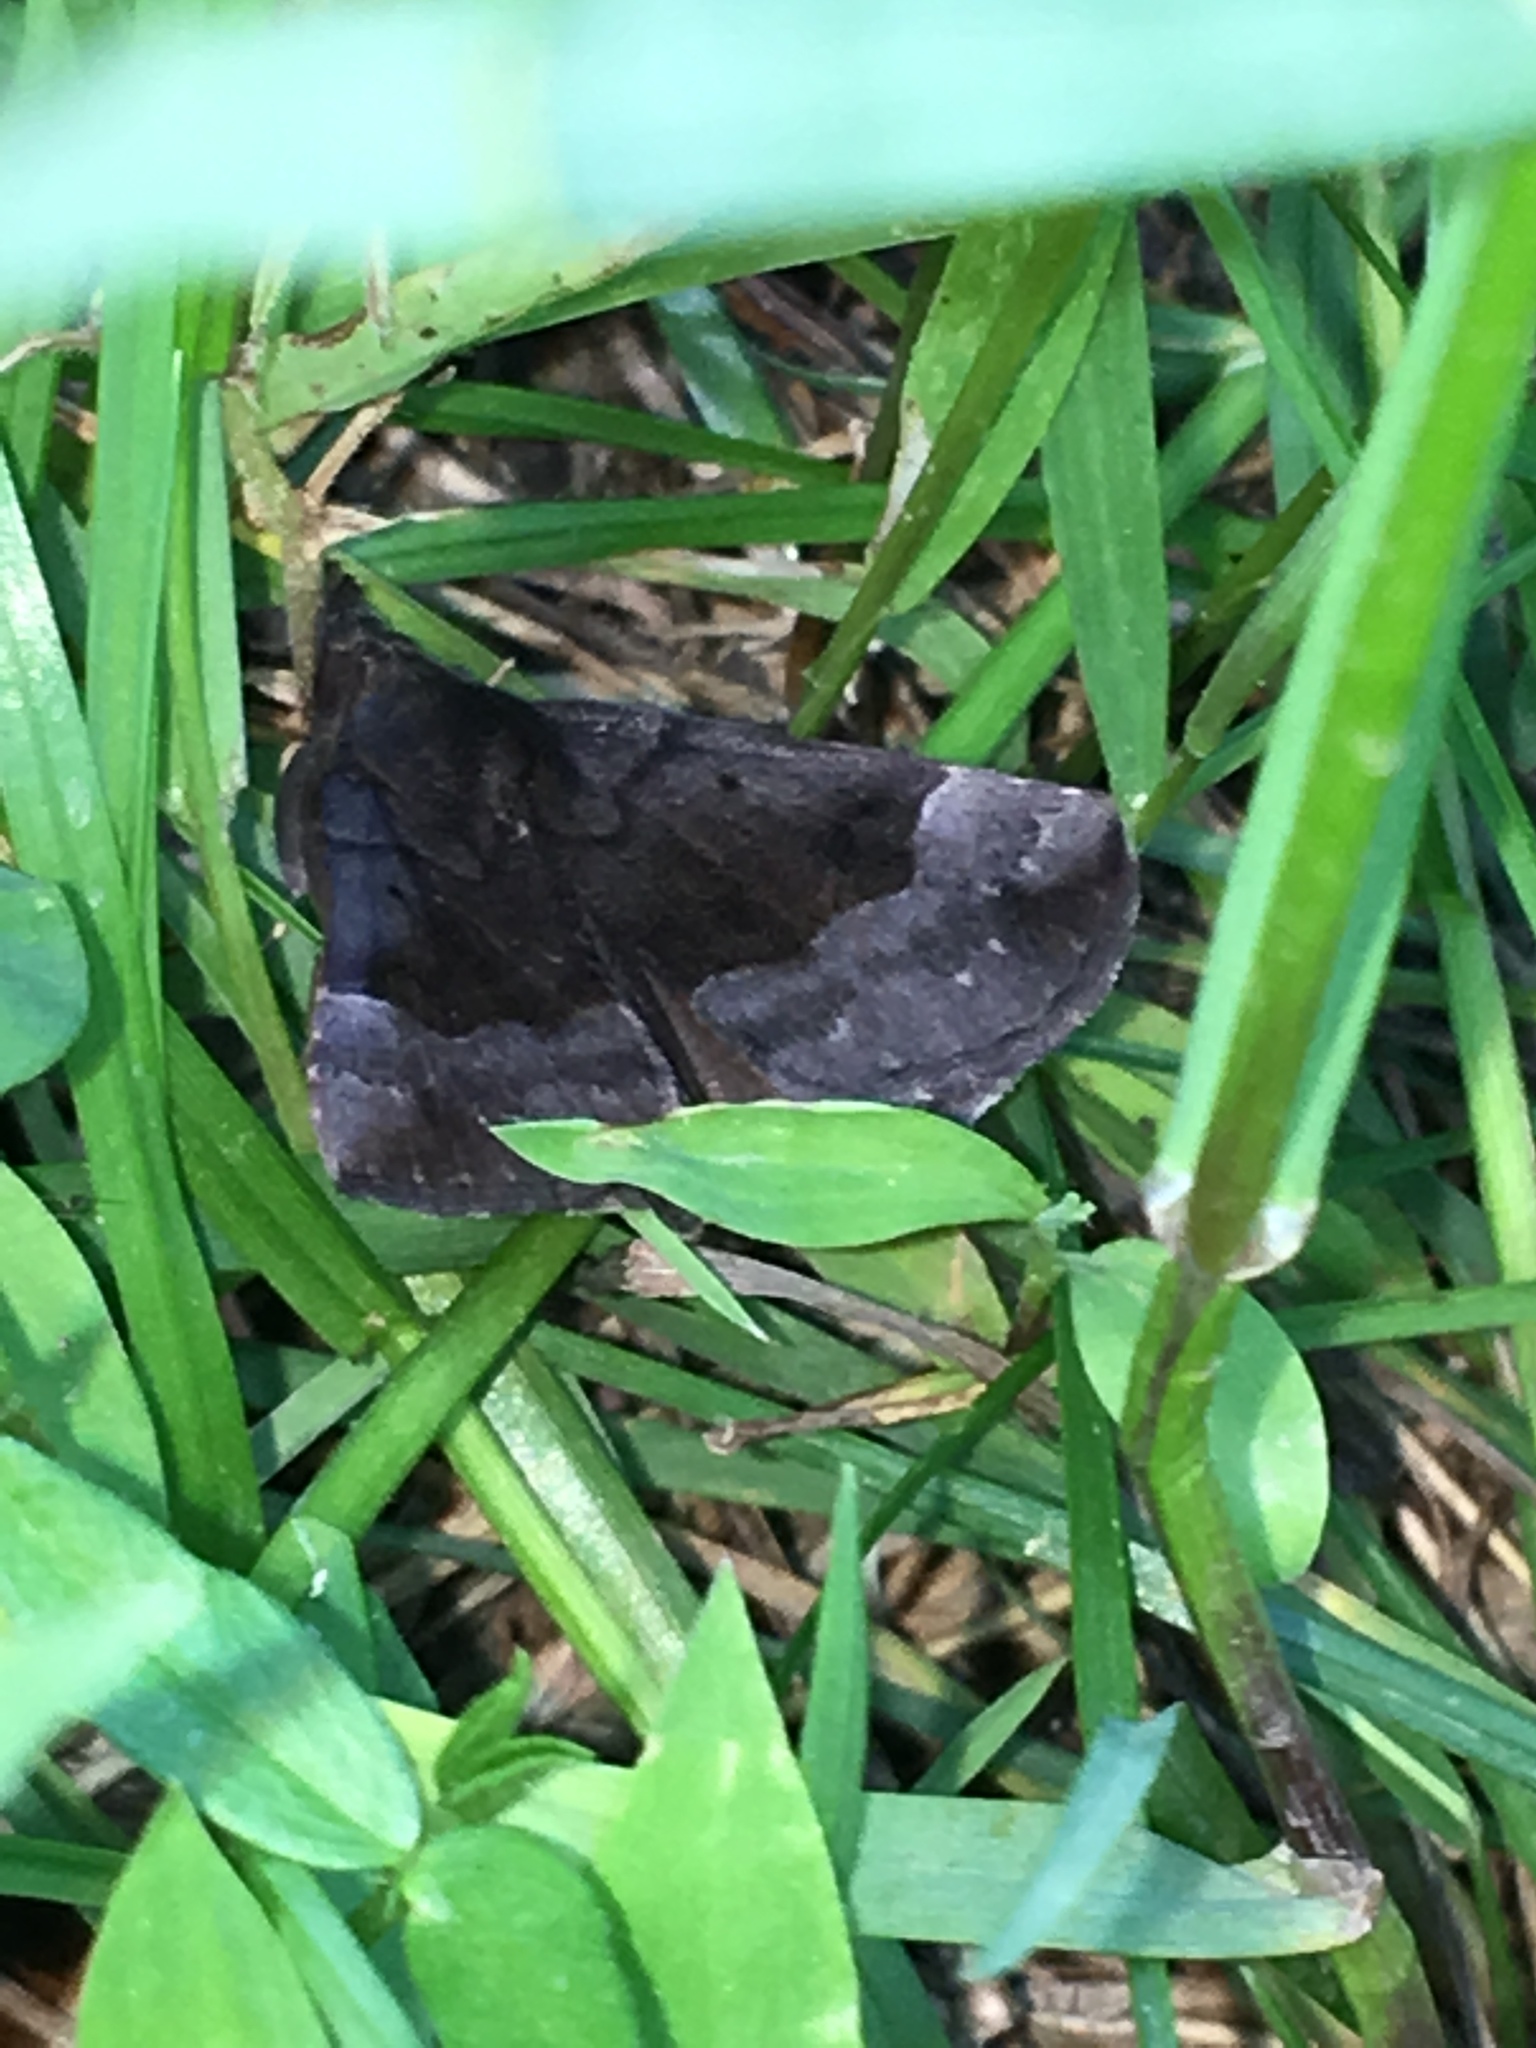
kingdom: Animalia
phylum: Arthropoda
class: Insecta
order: Lepidoptera
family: Erebidae
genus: Hypena
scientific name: Hypena madefactalis
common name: Gray-edged snout
